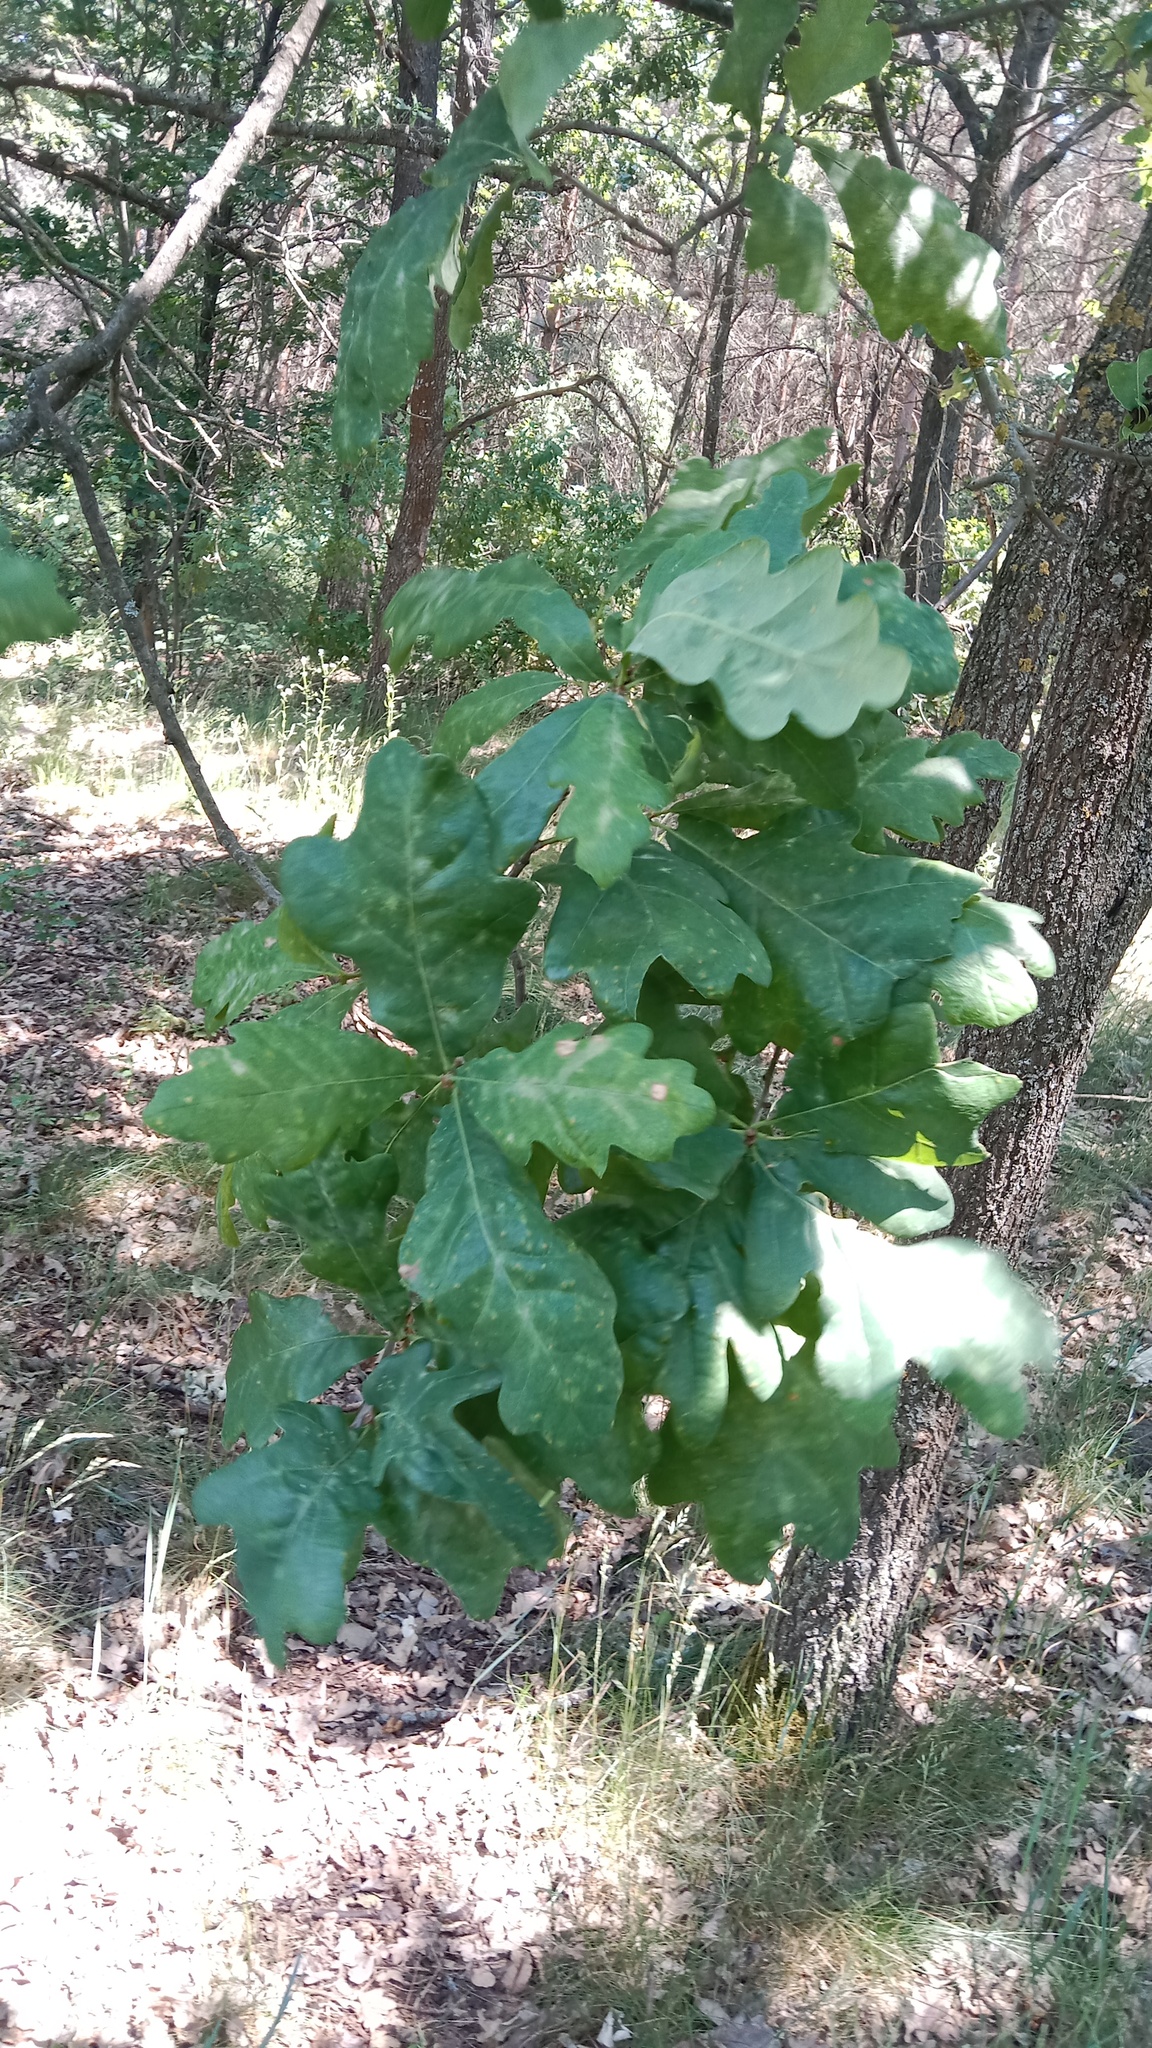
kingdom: Plantae
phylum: Tracheophyta
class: Magnoliopsida
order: Fagales
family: Fagaceae
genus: Quercus
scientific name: Quercus robur
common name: Pedunculate oak
